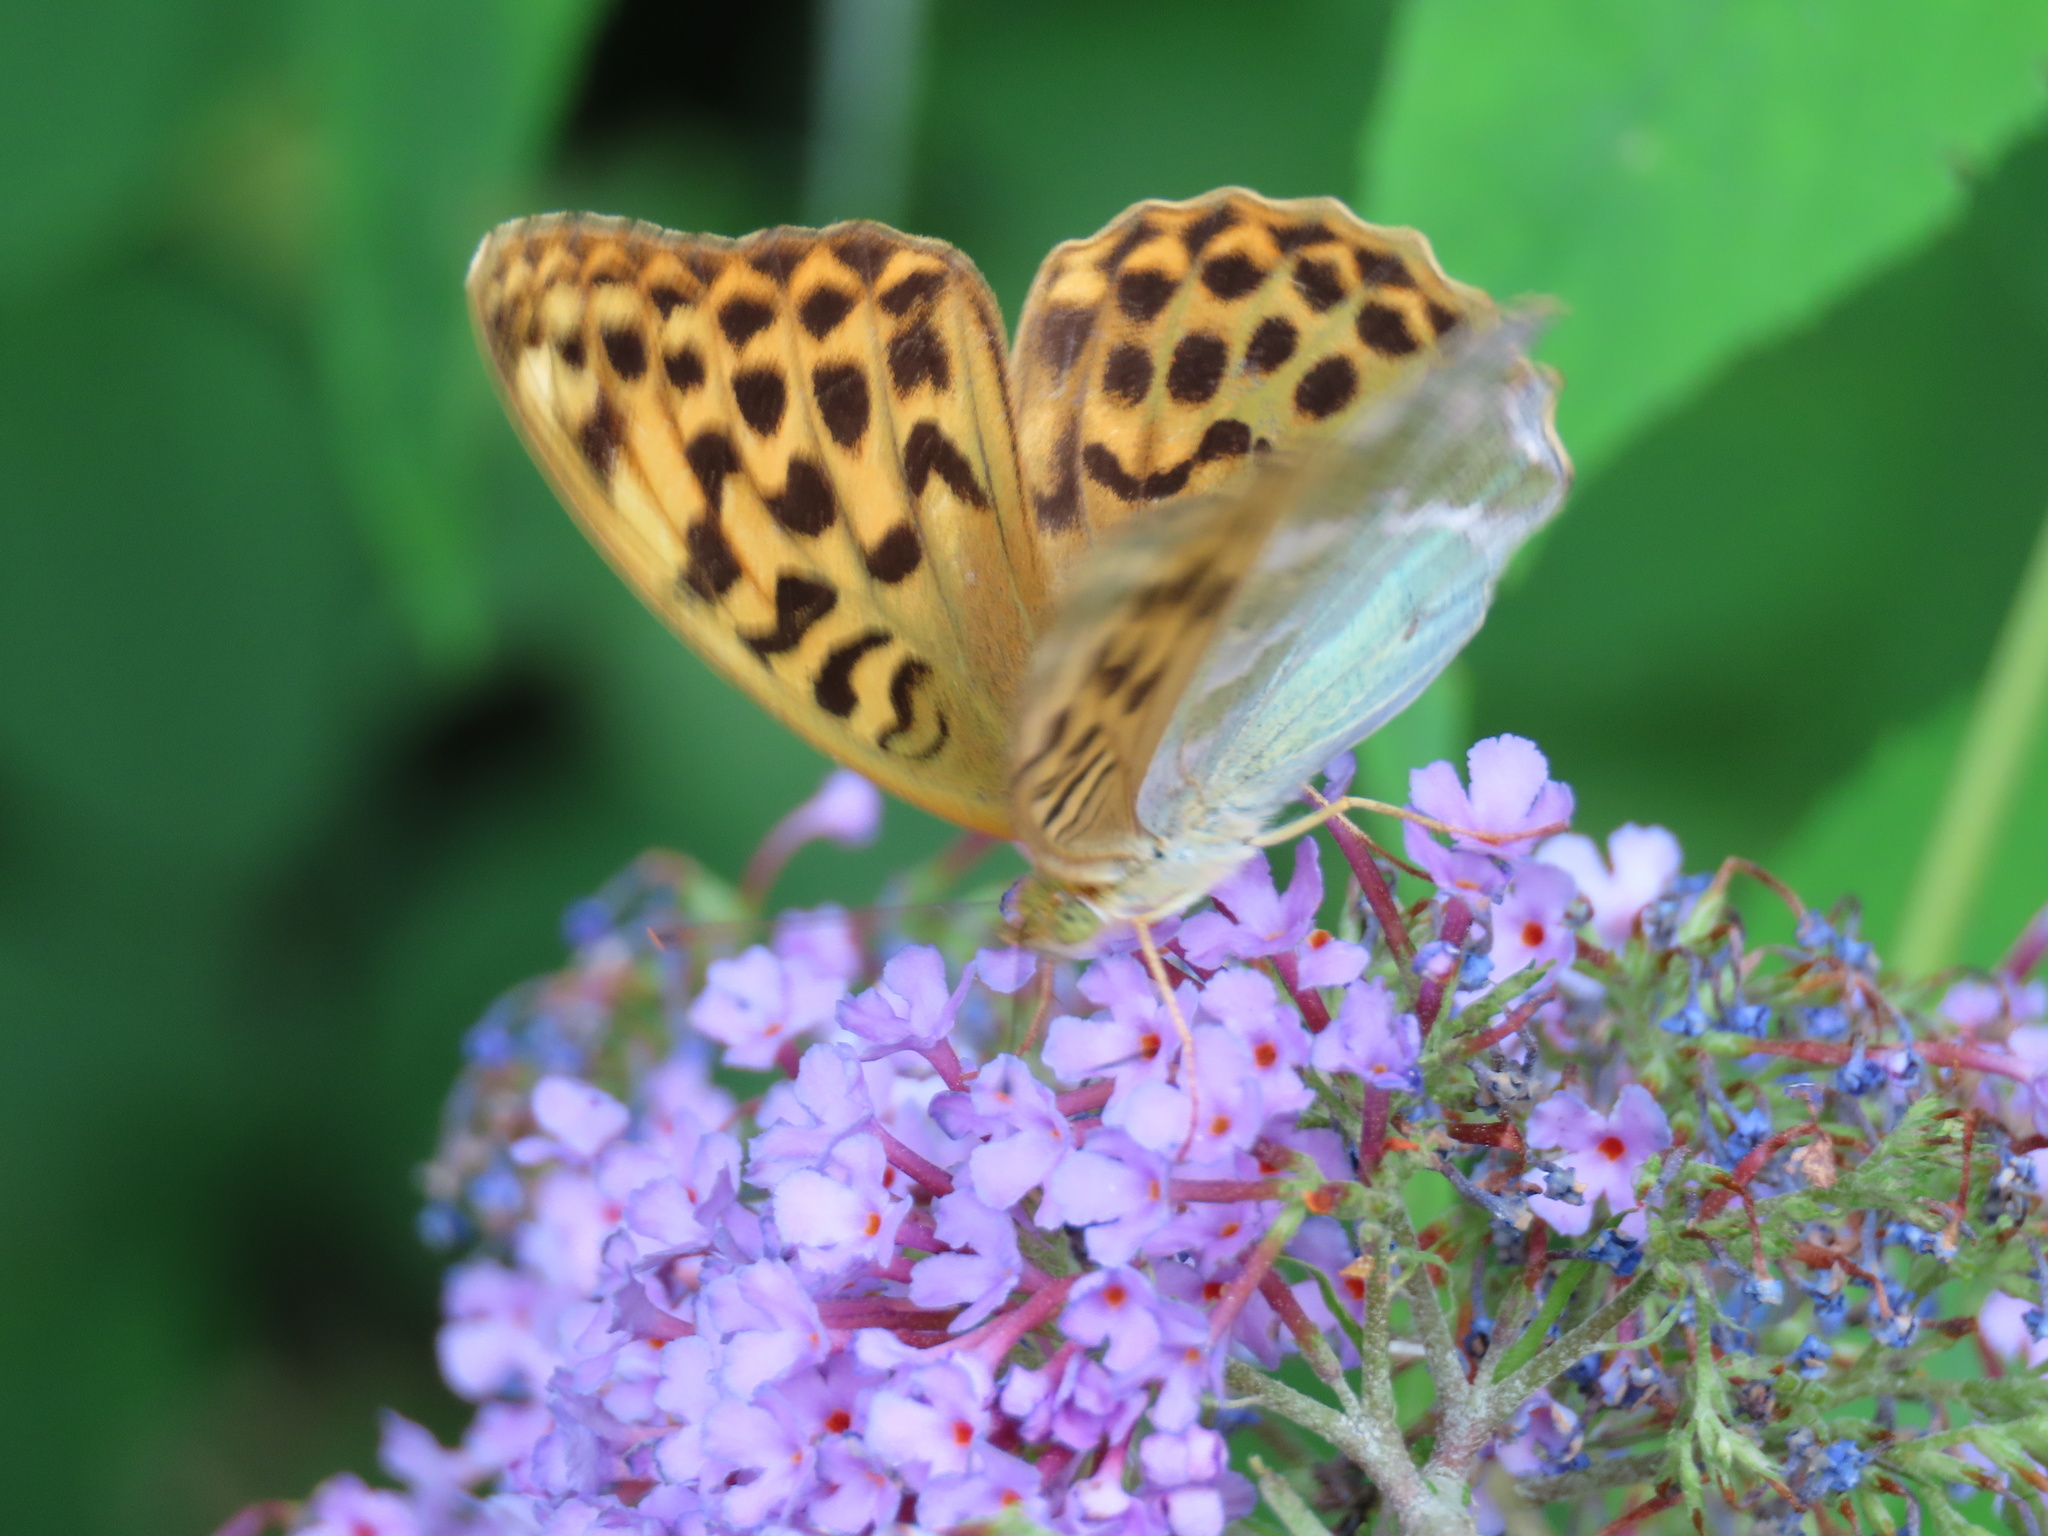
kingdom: Animalia
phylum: Arthropoda
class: Insecta
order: Lepidoptera
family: Nymphalidae
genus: Argynnis
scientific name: Argynnis paphia
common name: Silver-washed fritillary
